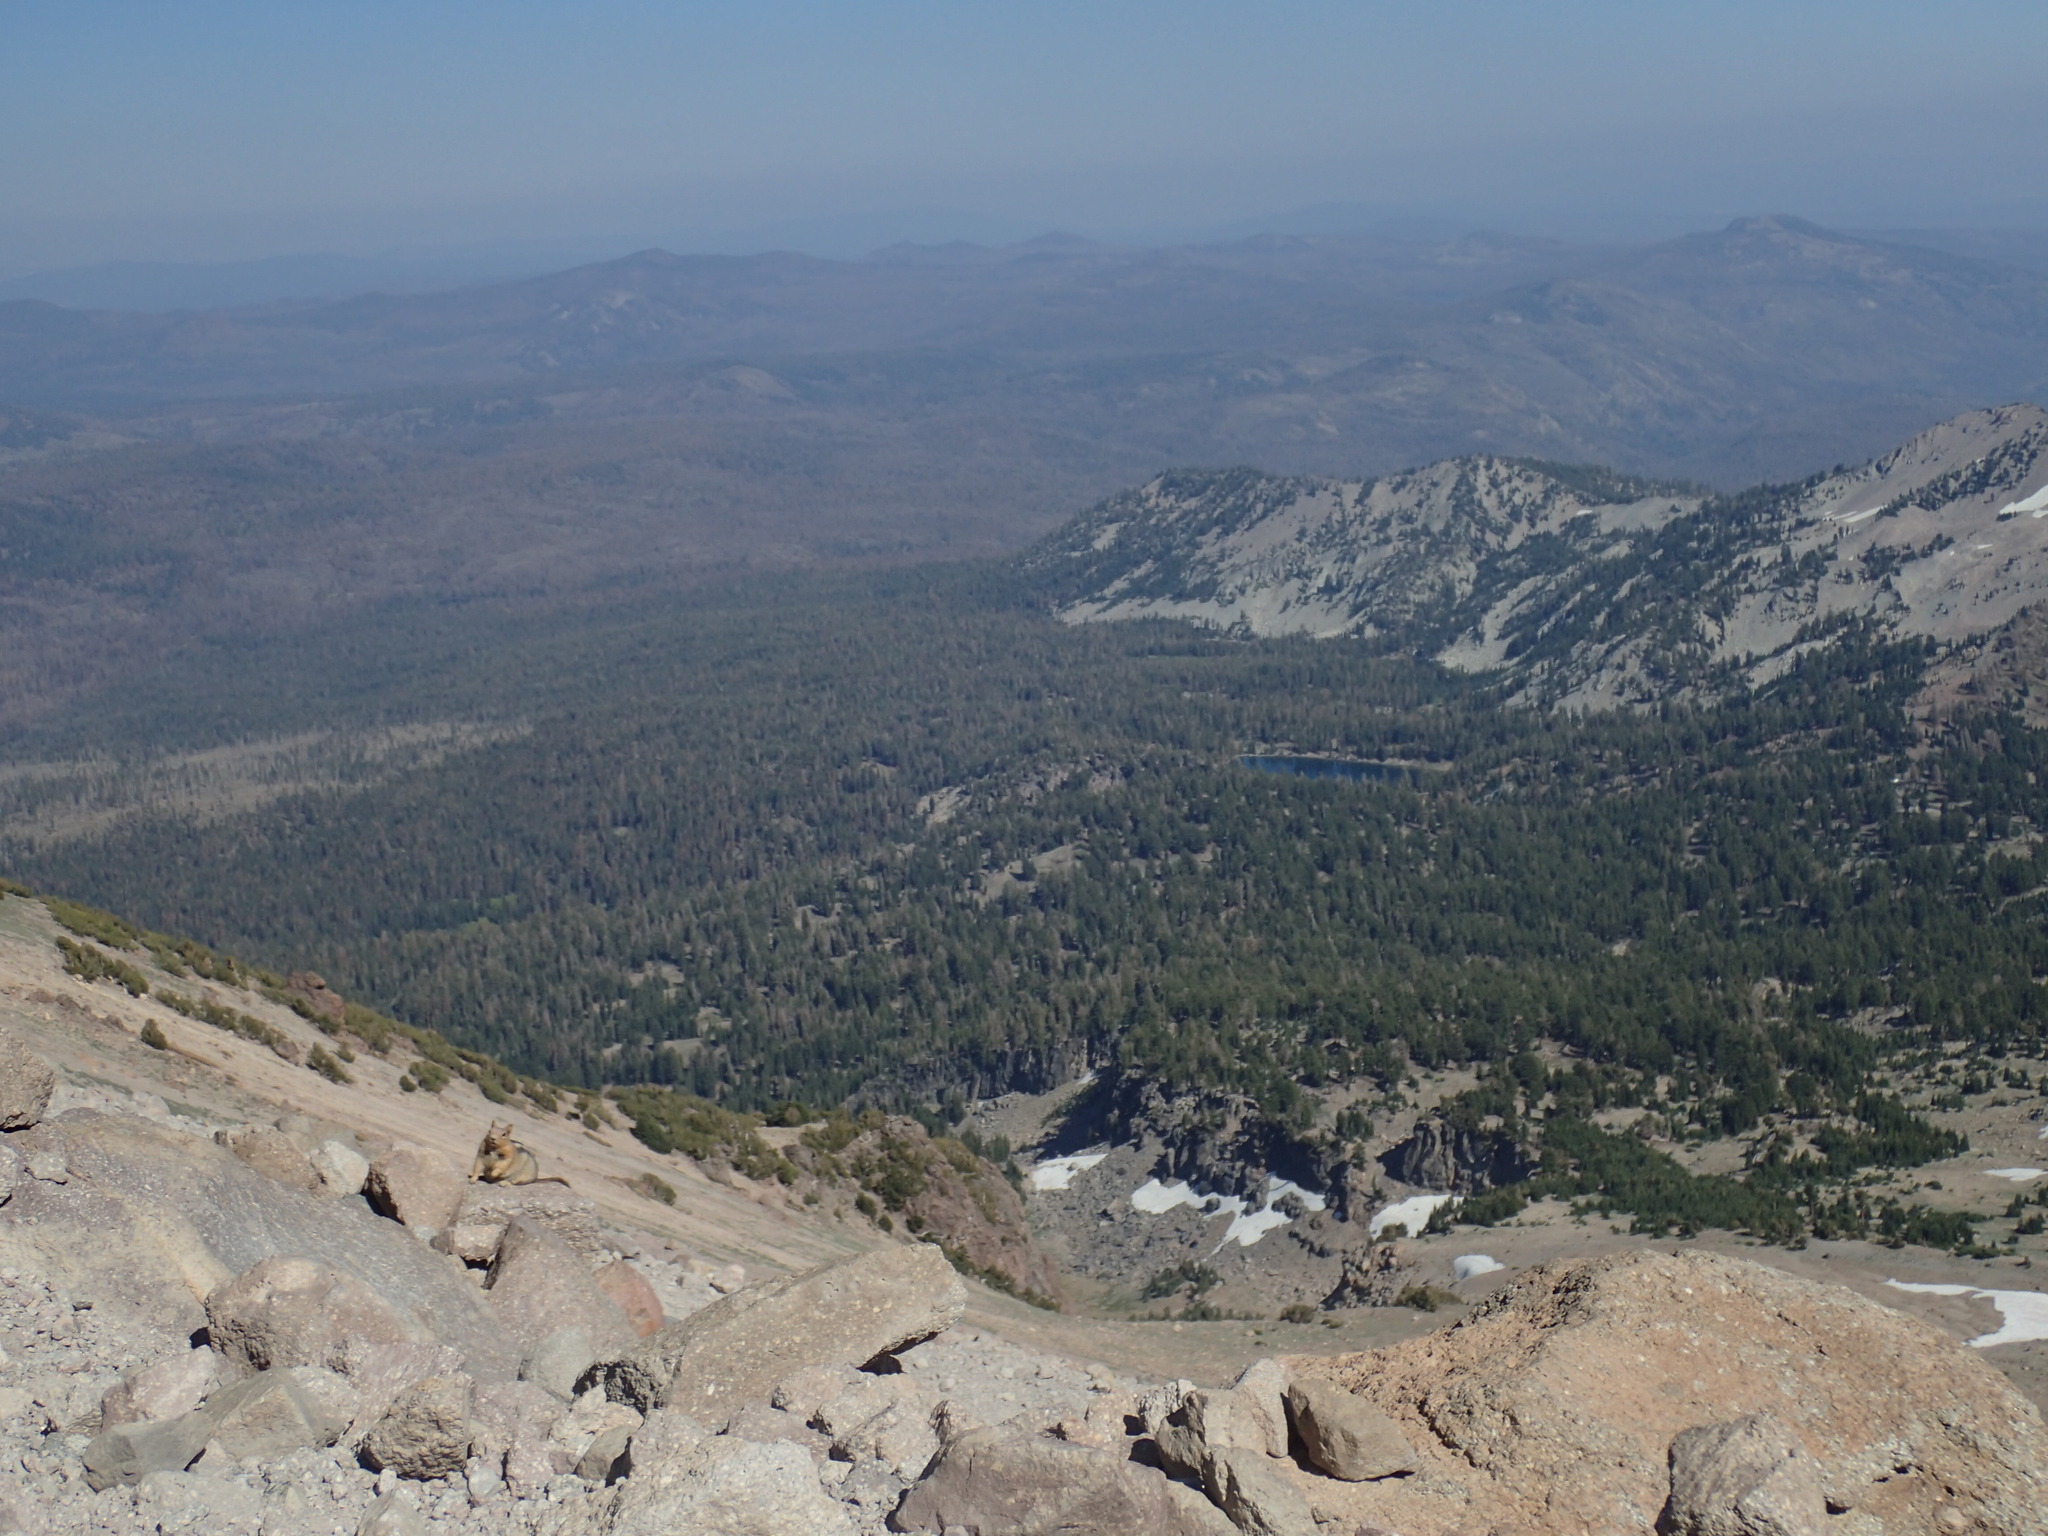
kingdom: Animalia
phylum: Chordata
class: Mammalia
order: Rodentia
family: Sciuridae
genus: Callospermophilus
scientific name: Callospermophilus lateralis
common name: Golden-mantled ground squirrel
